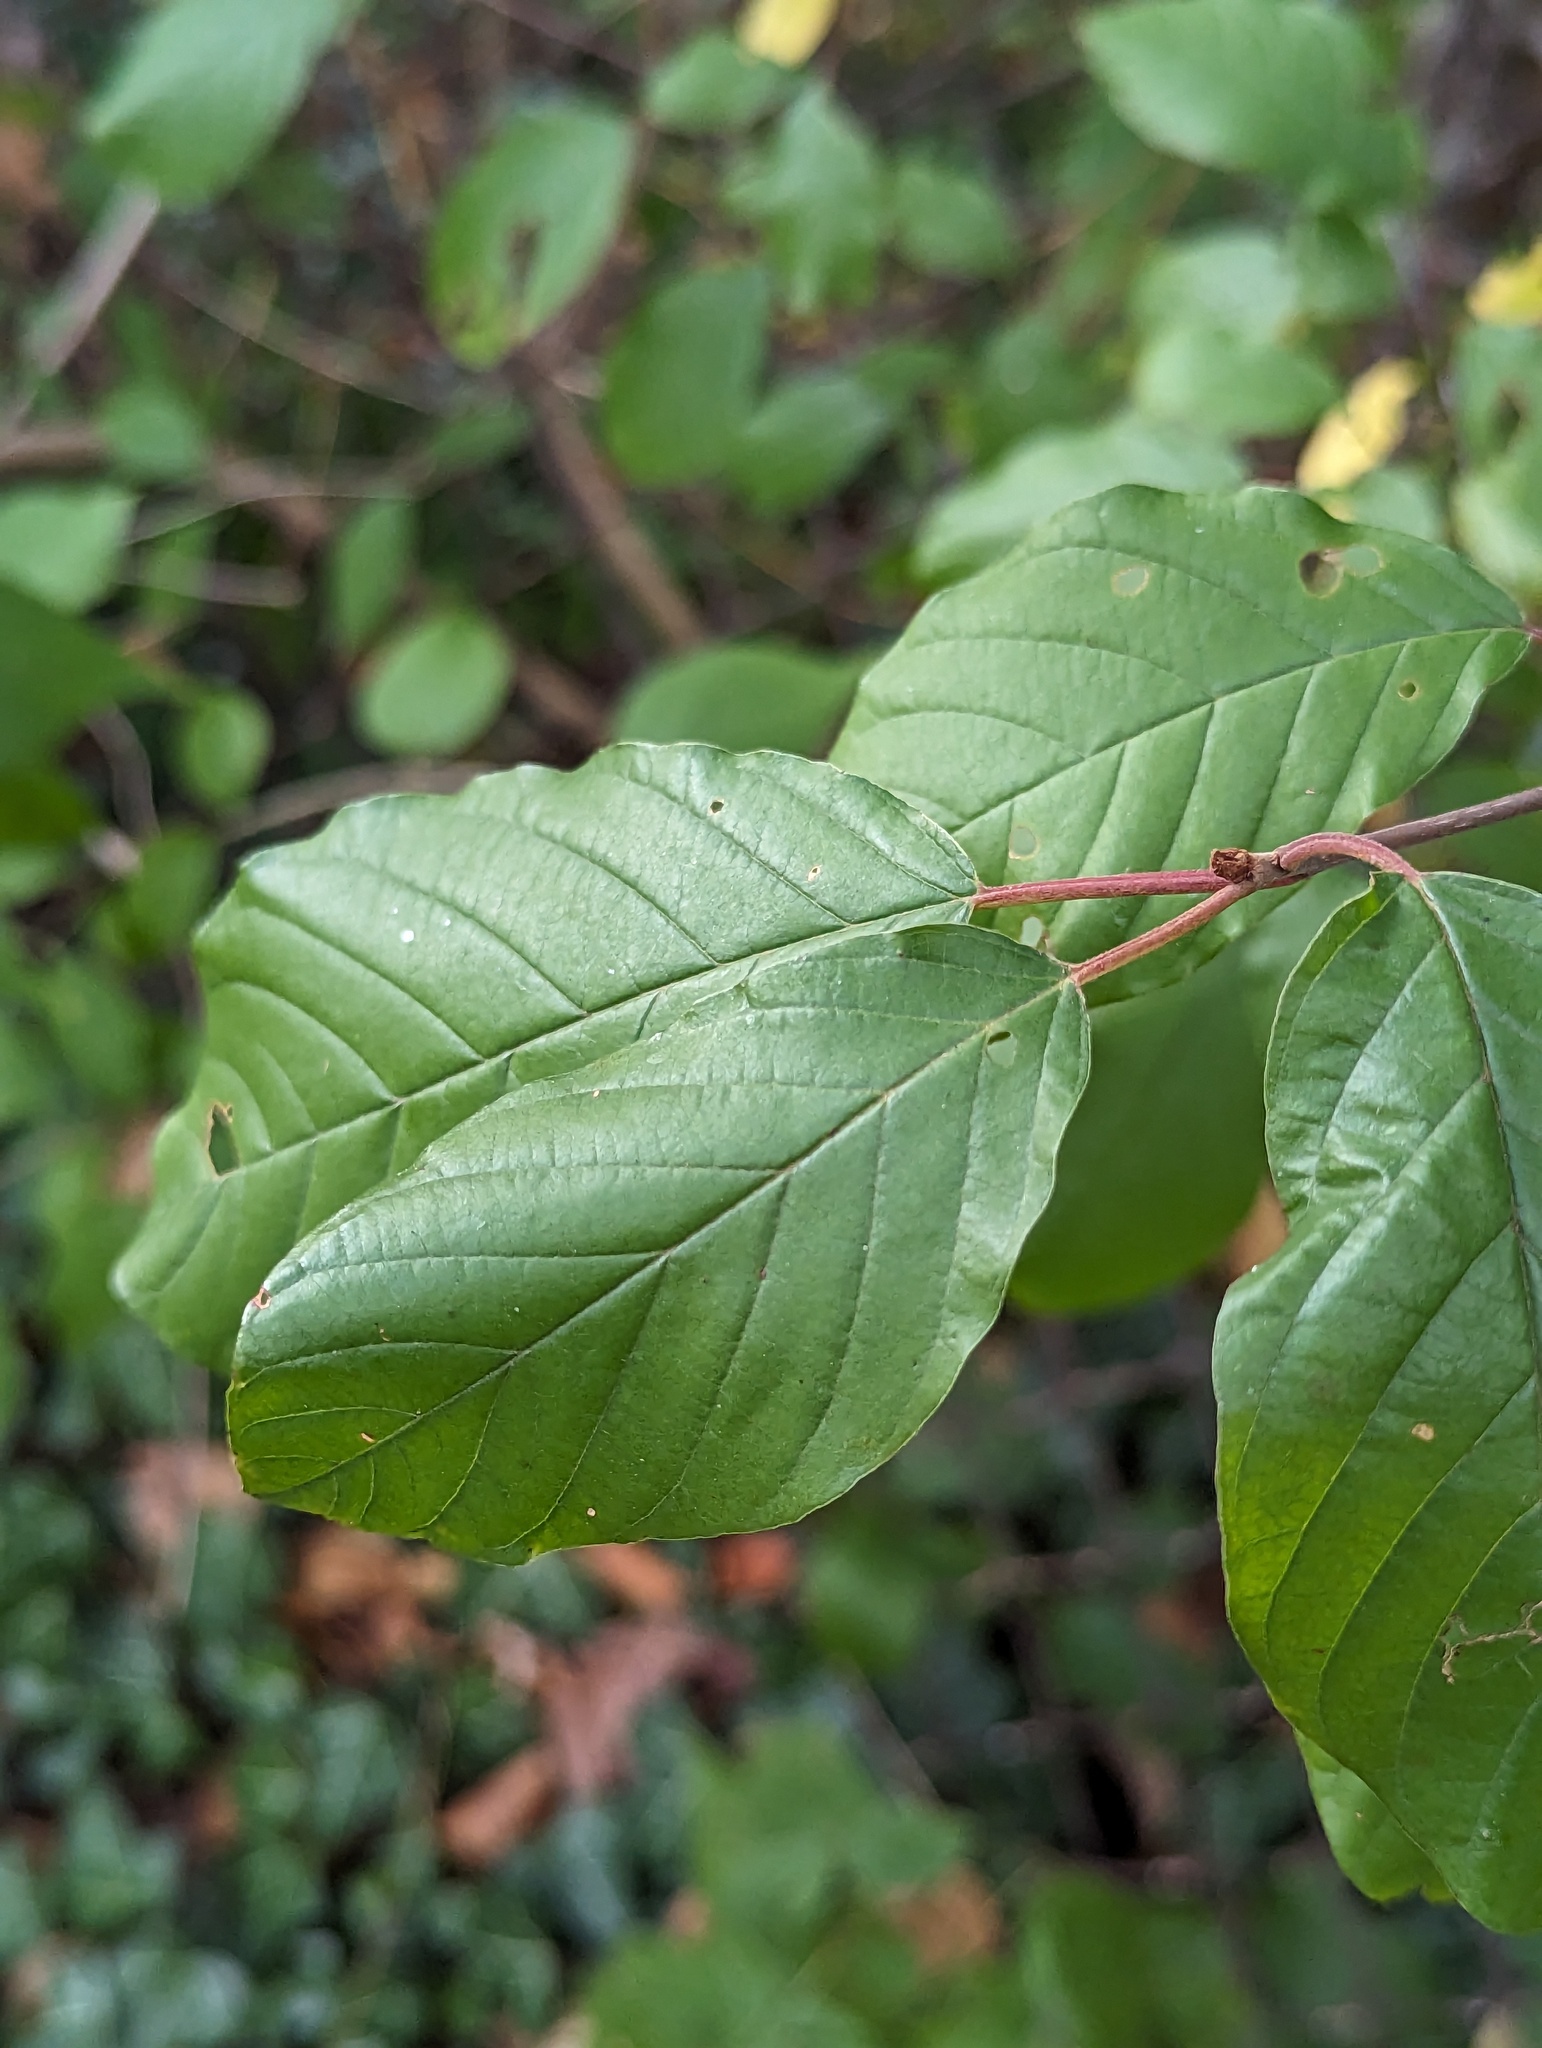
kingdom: Plantae
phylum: Tracheophyta
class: Magnoliopsida
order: Rosales
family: Rhamnaceae
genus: Frangula
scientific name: Frangula alnus
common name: Alder buckthorn
